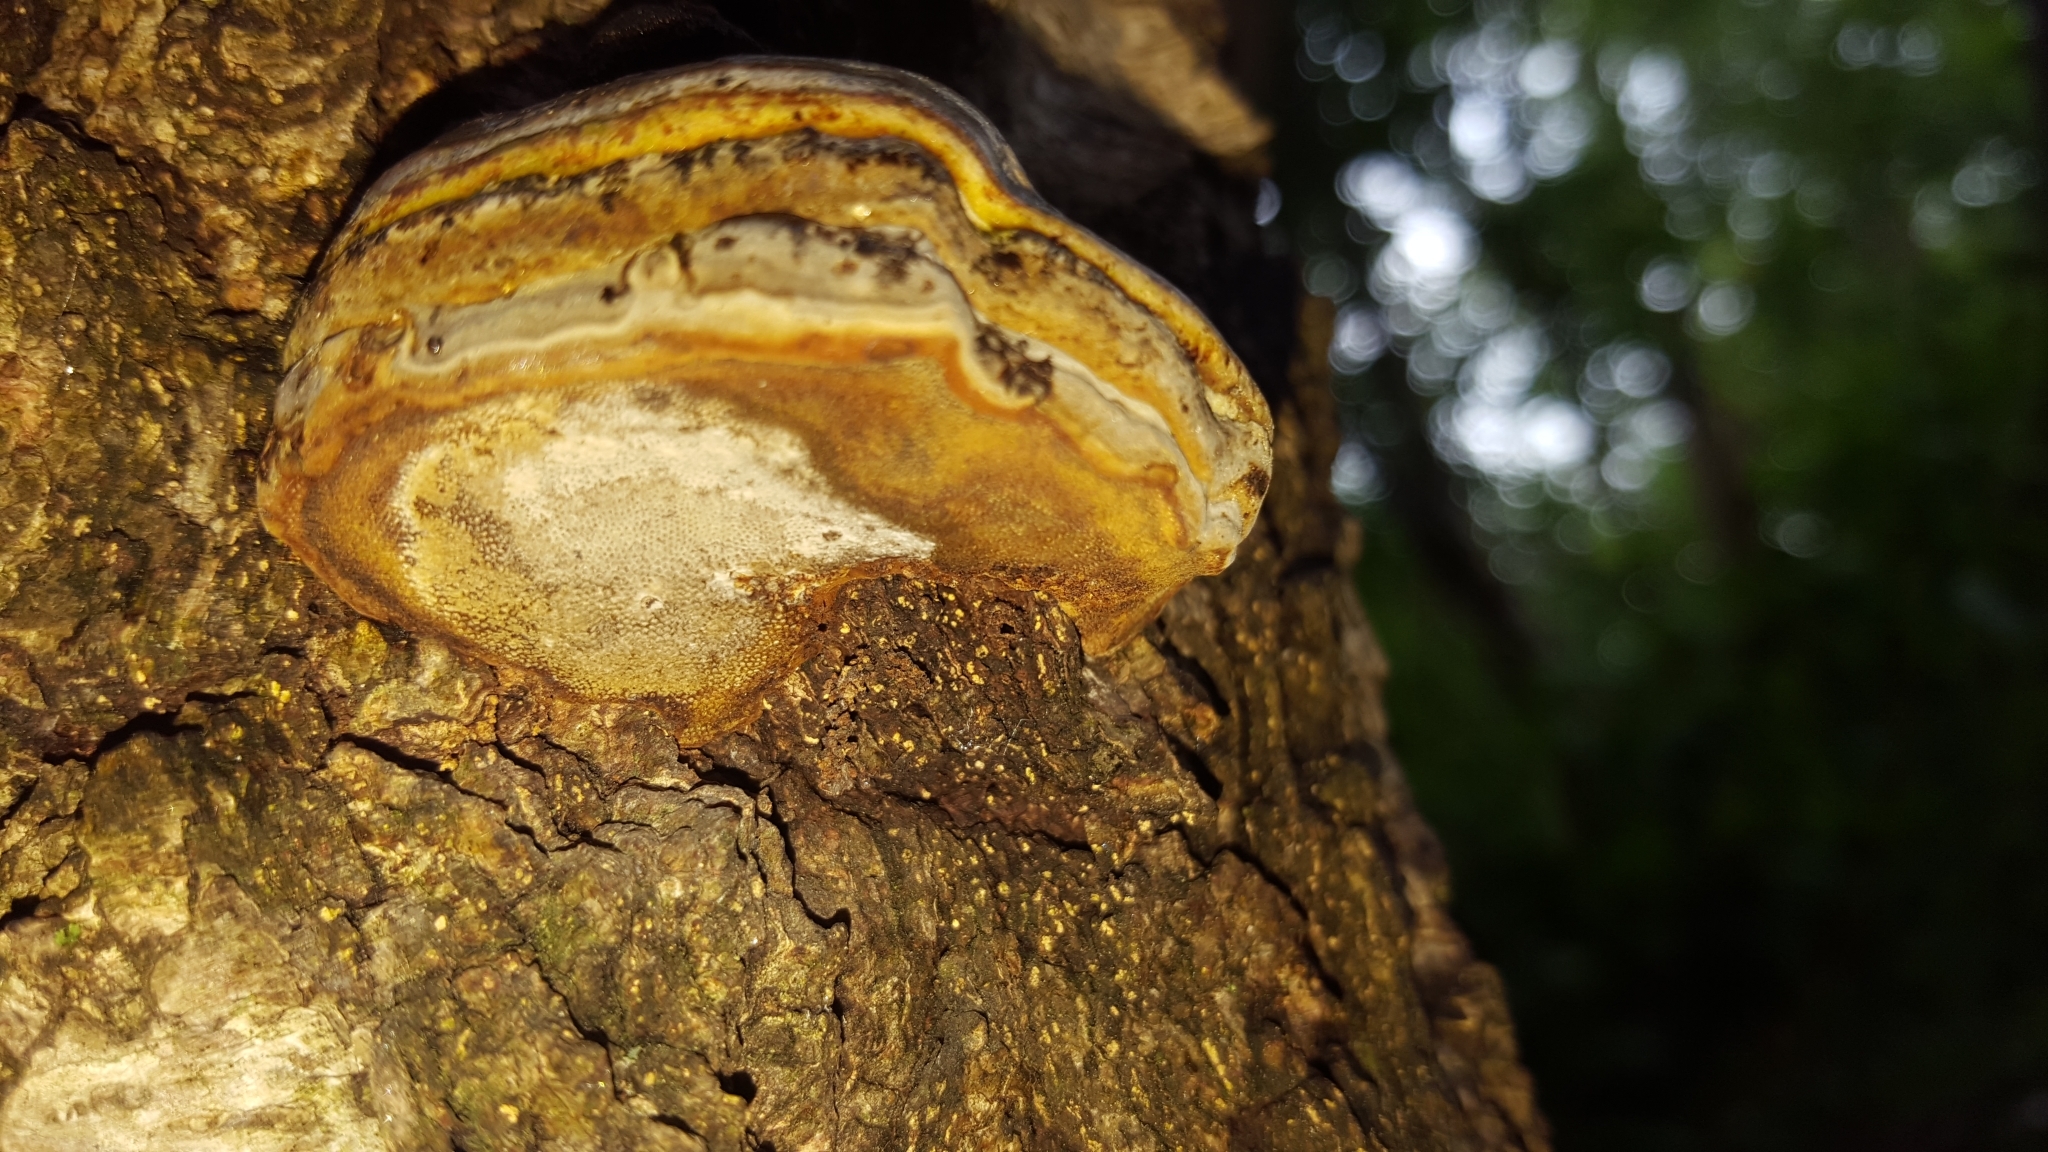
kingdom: Fungi
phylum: Basidiomycota
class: Agaricomycetes
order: Polyporales
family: Polyporaceae
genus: Fomes
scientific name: Fomes fomentarius
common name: Hoof fungus
